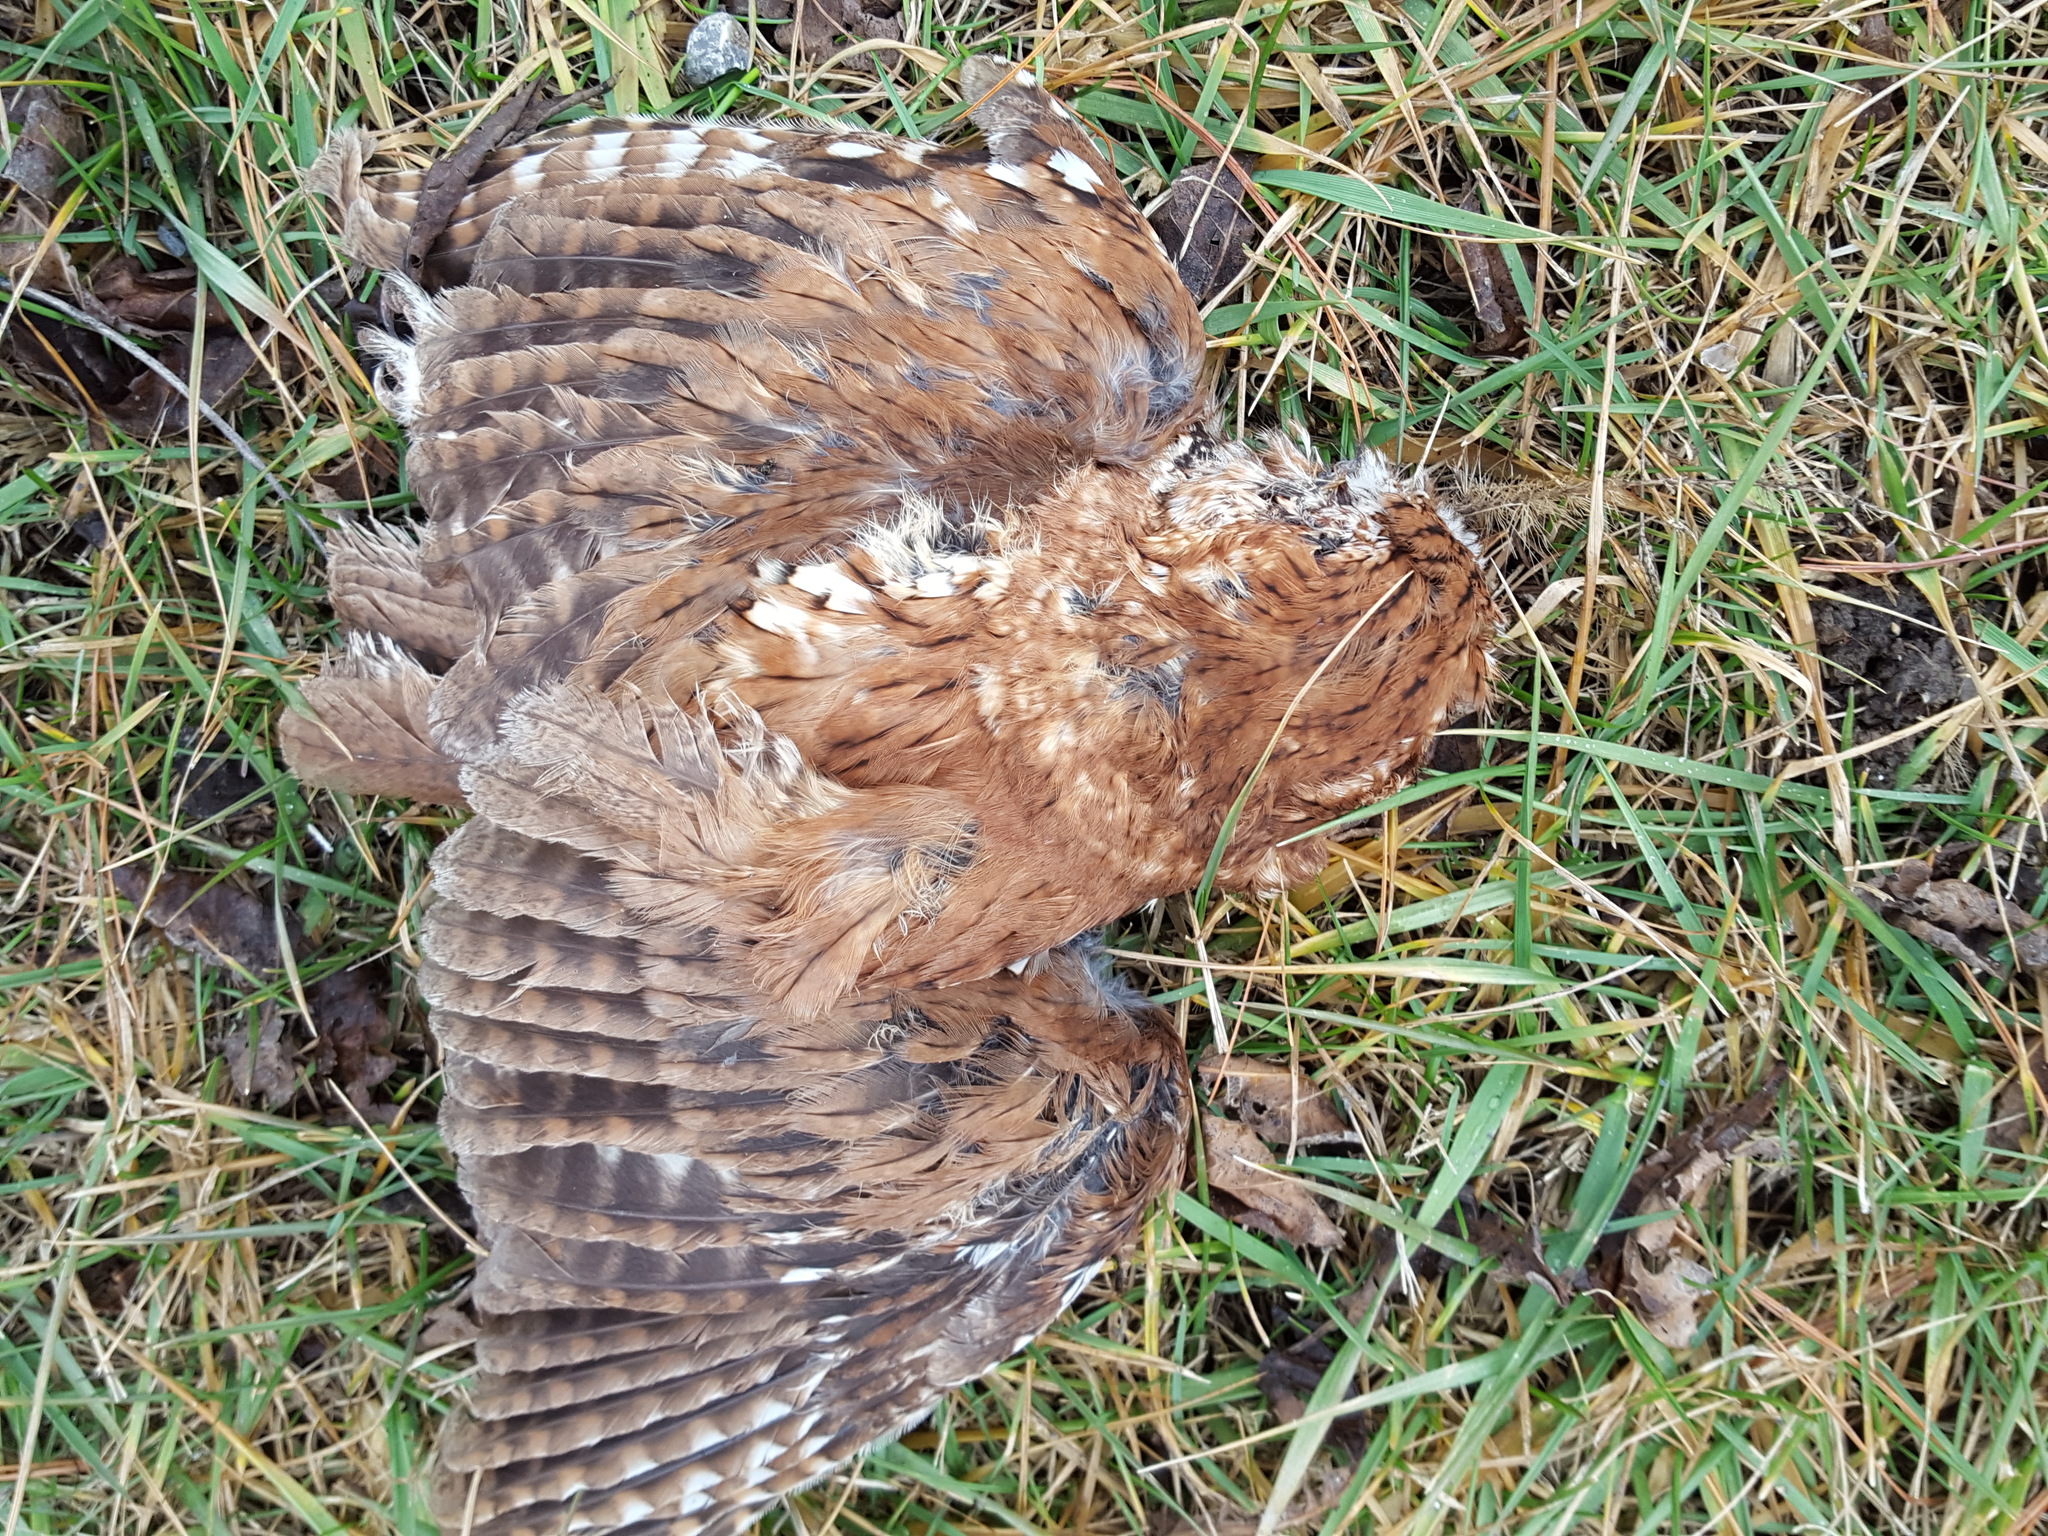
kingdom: Animalia
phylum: Chordata
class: Aves
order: Strigiformes
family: Strigidae
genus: Megascops
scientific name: Megascops asio
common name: Eastern screech-owl
